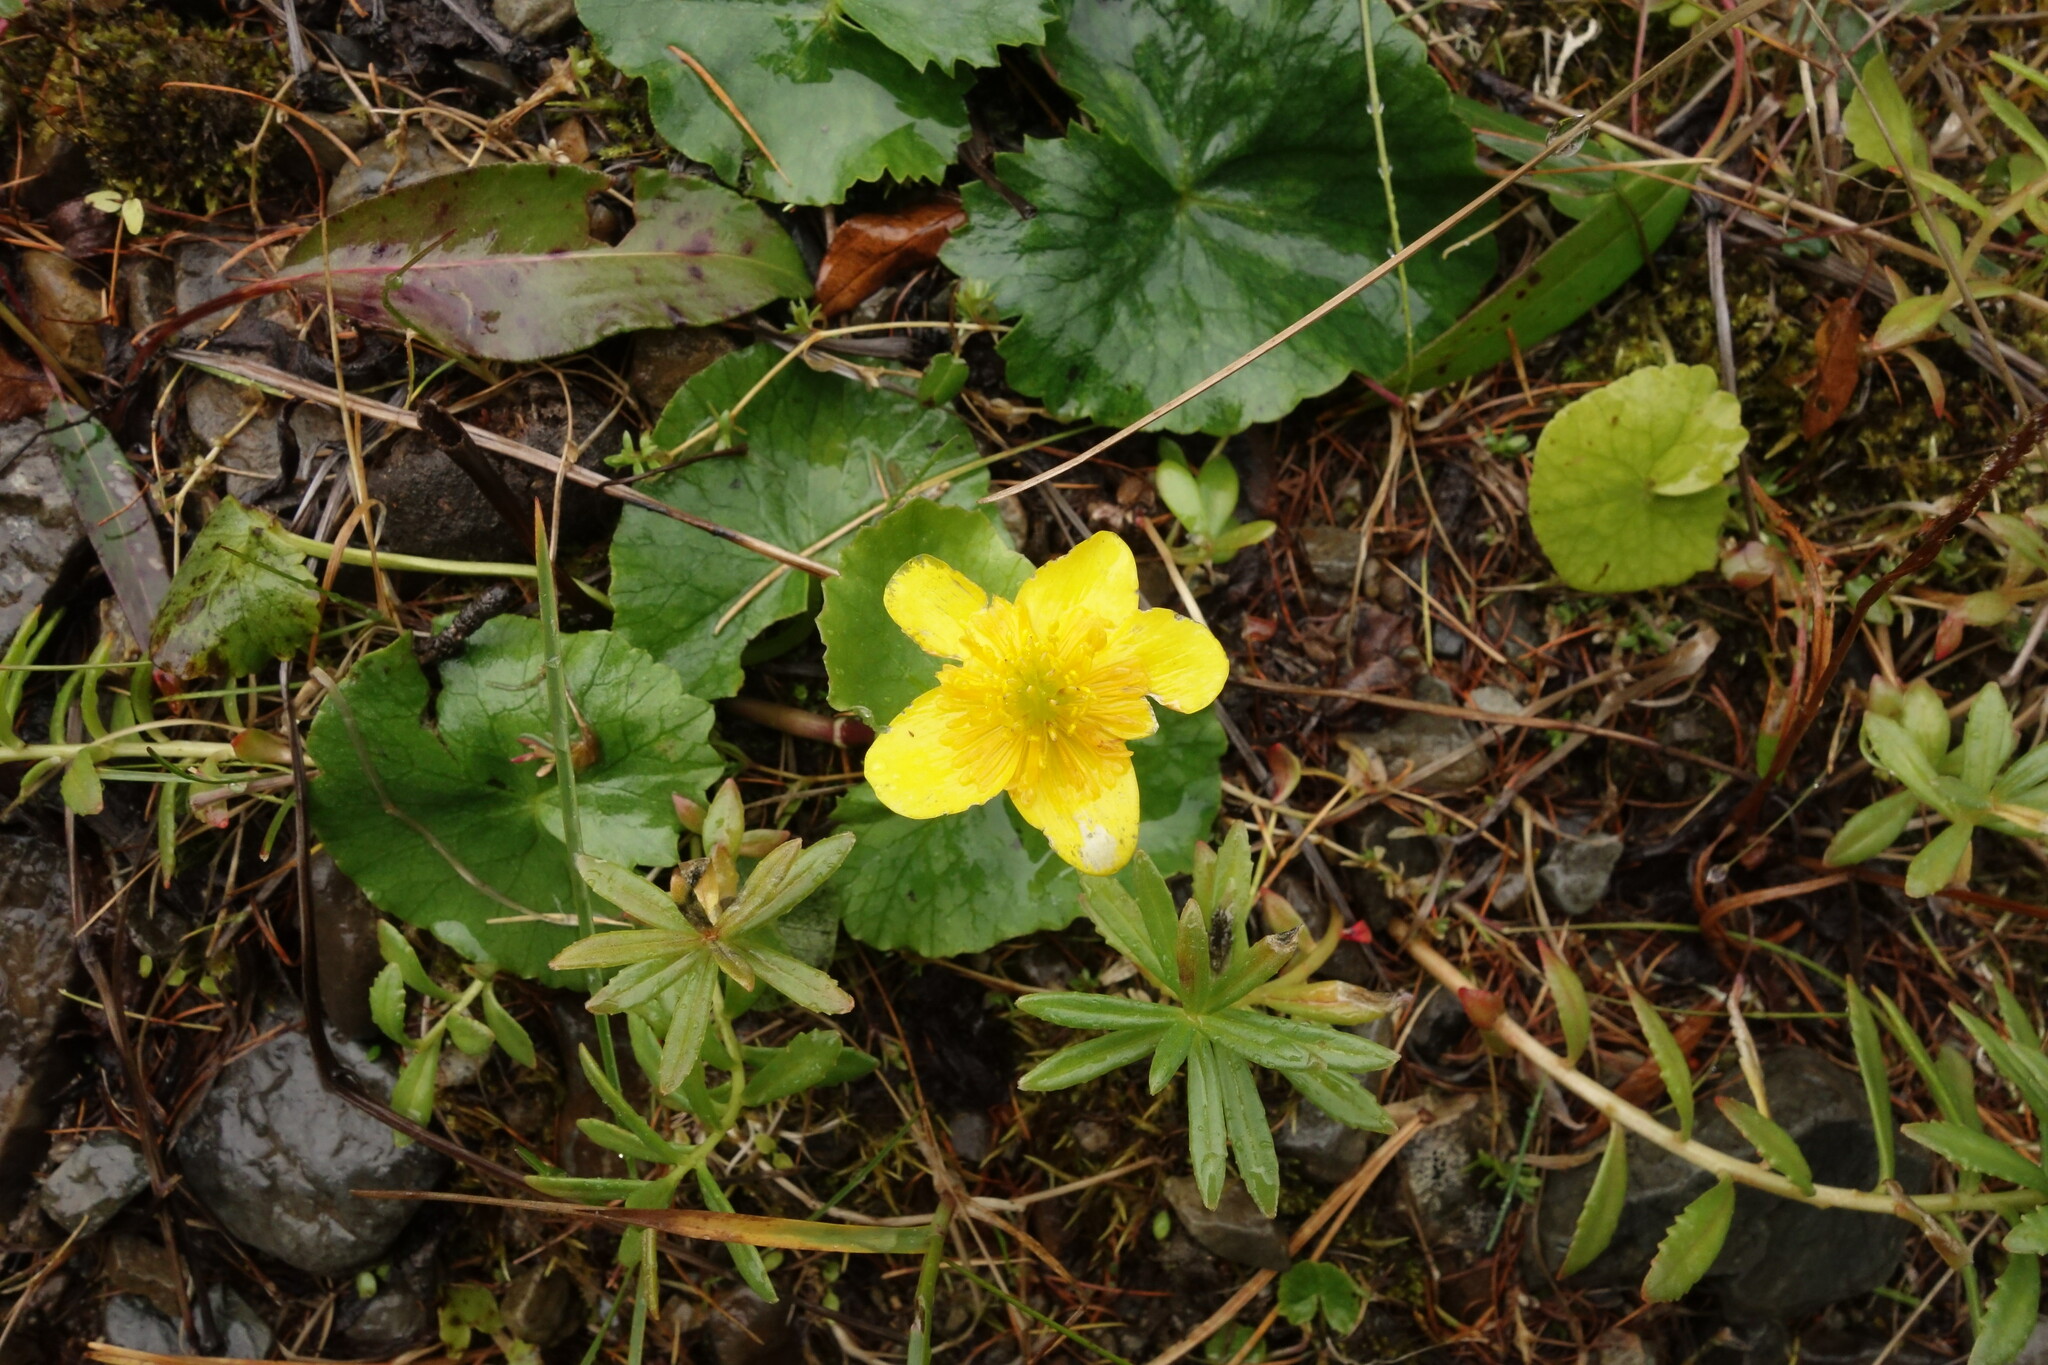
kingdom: Plantae
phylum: Tracheophyta
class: Magnoliopsida
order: Ranunculales
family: Ranunculaceae
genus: Caltha
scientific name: Caltha palustris
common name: Marsh marigold
